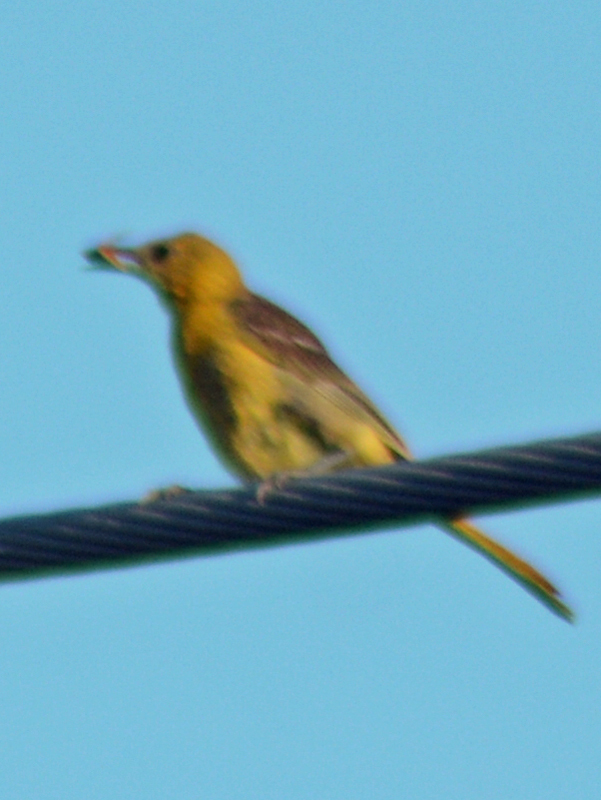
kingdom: Animalia
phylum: Chordata
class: Aves
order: Passeriformes
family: Icteridae
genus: Icterus
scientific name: Icterus cucullatus
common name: Hooded oriole
